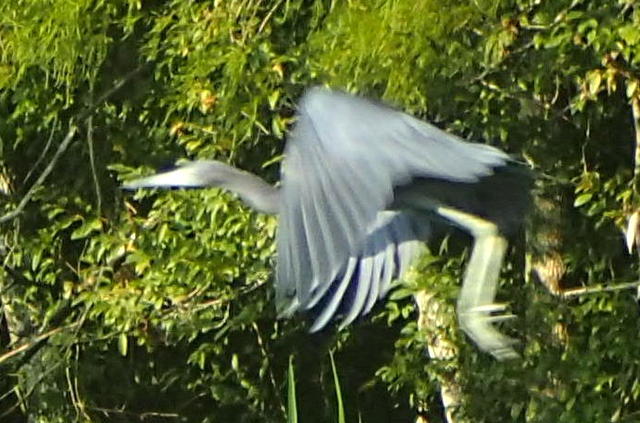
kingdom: Animalia
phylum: Chordata
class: Aves
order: Pelecaniformes
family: Ardeidae
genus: Egretta
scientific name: Egretta caerulea
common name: Little blue heron
